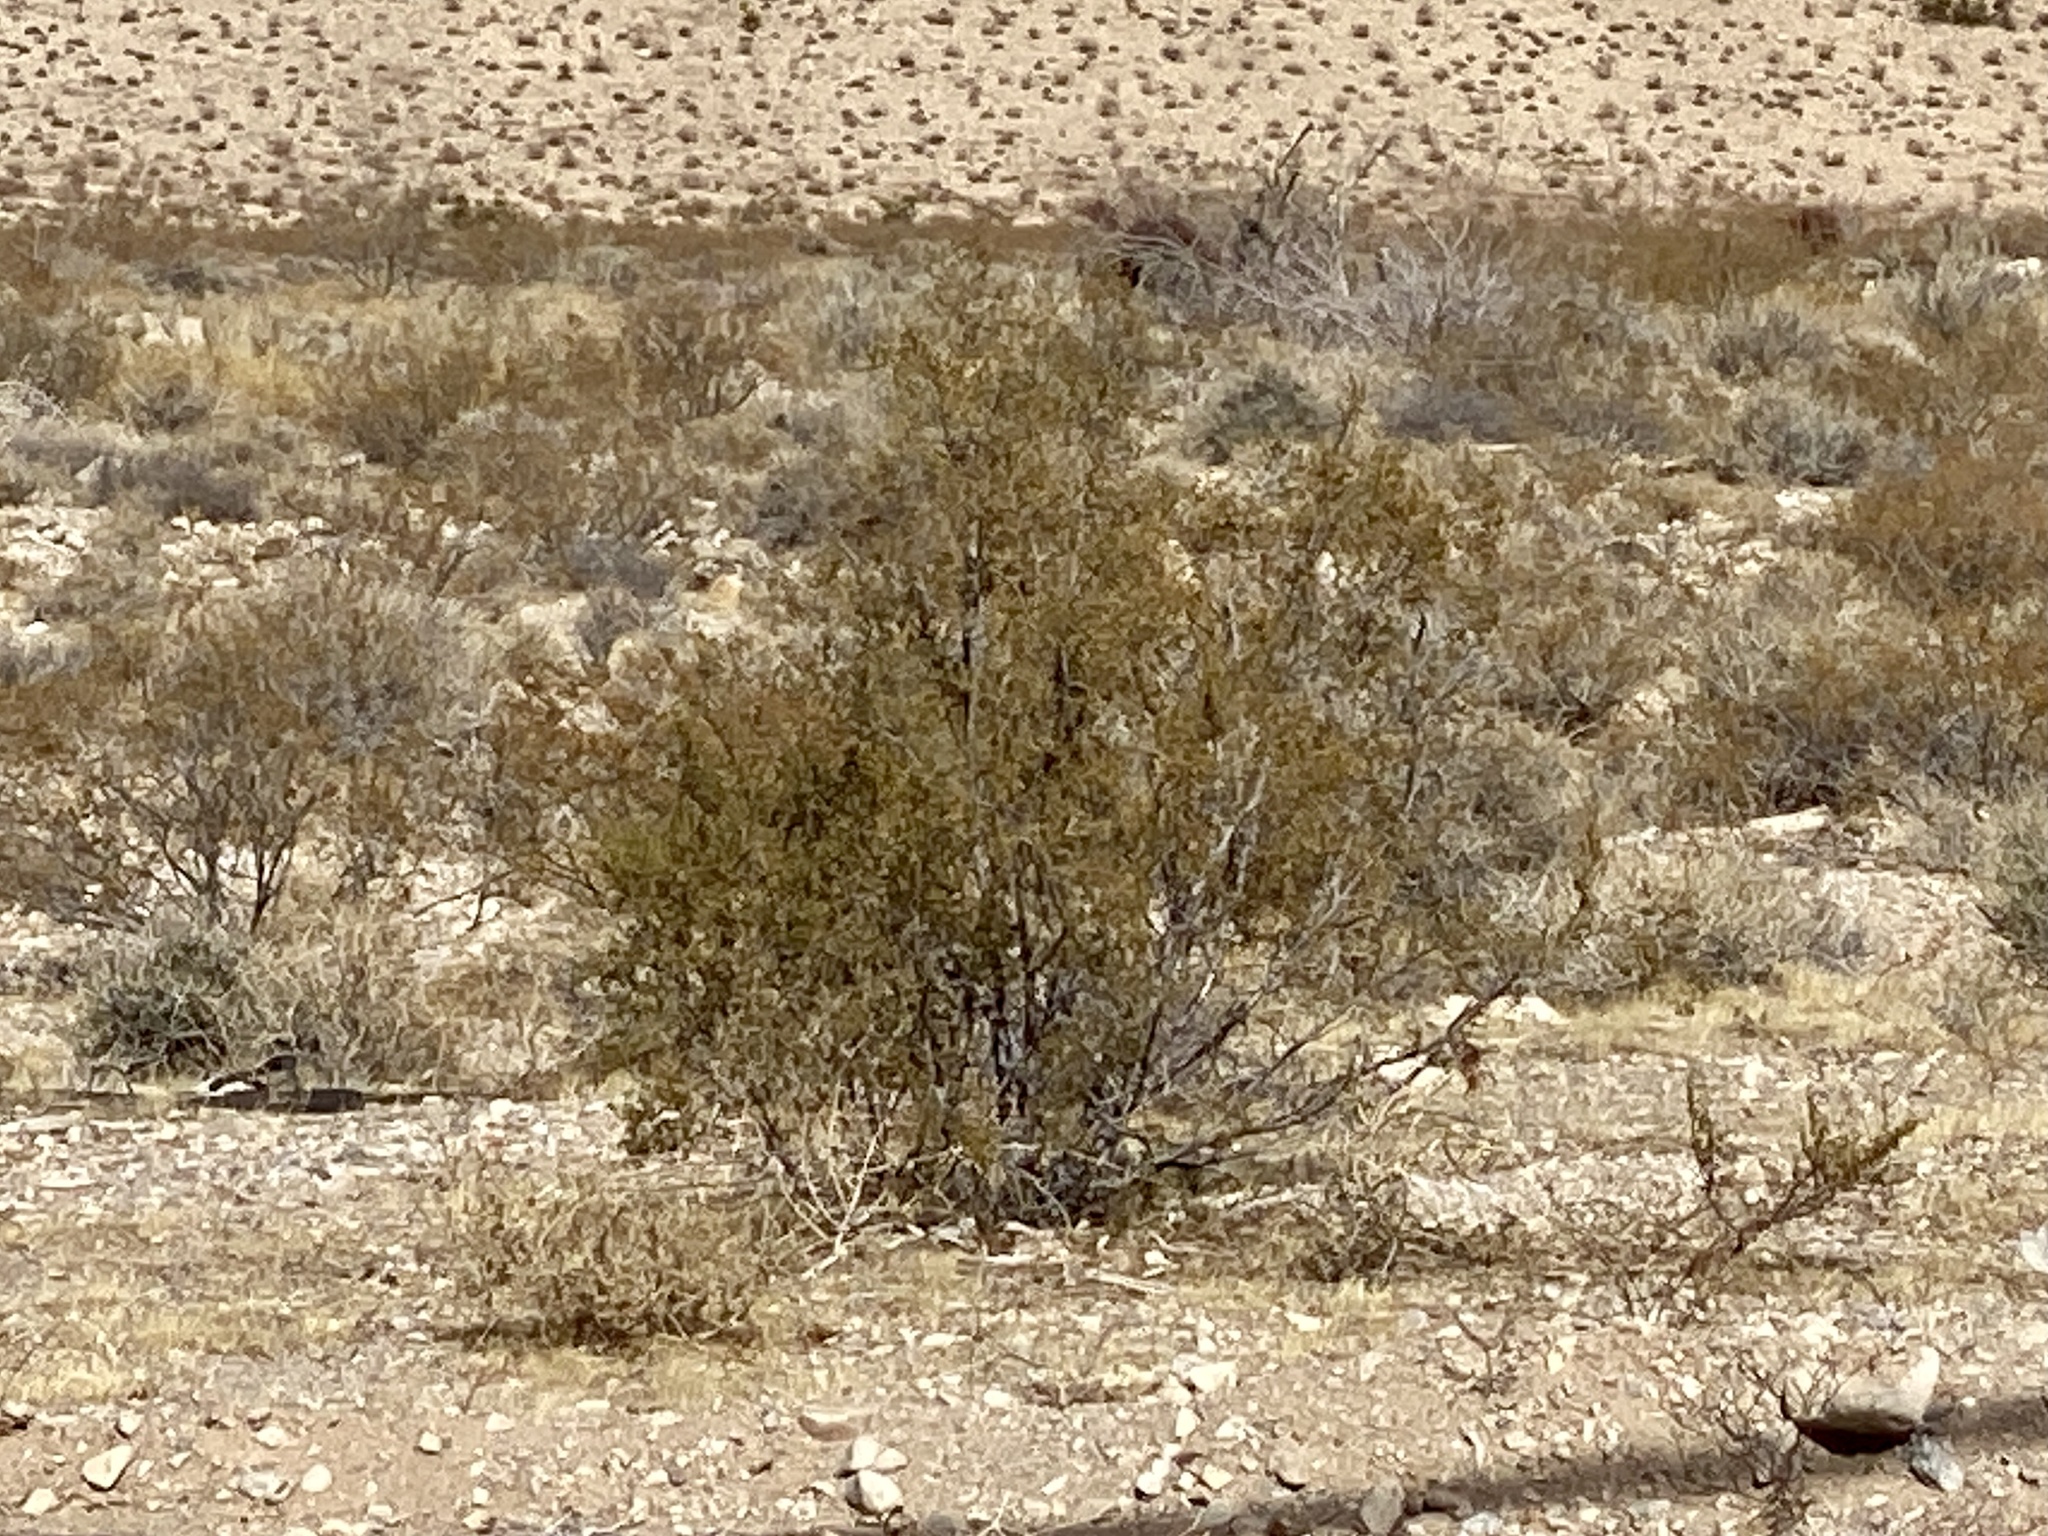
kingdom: Plantae
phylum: Tracheophyta
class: Magnoliopsida
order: Zygophyllales
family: Zygophyllaceae
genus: Larrea
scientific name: Larrea tridentata
